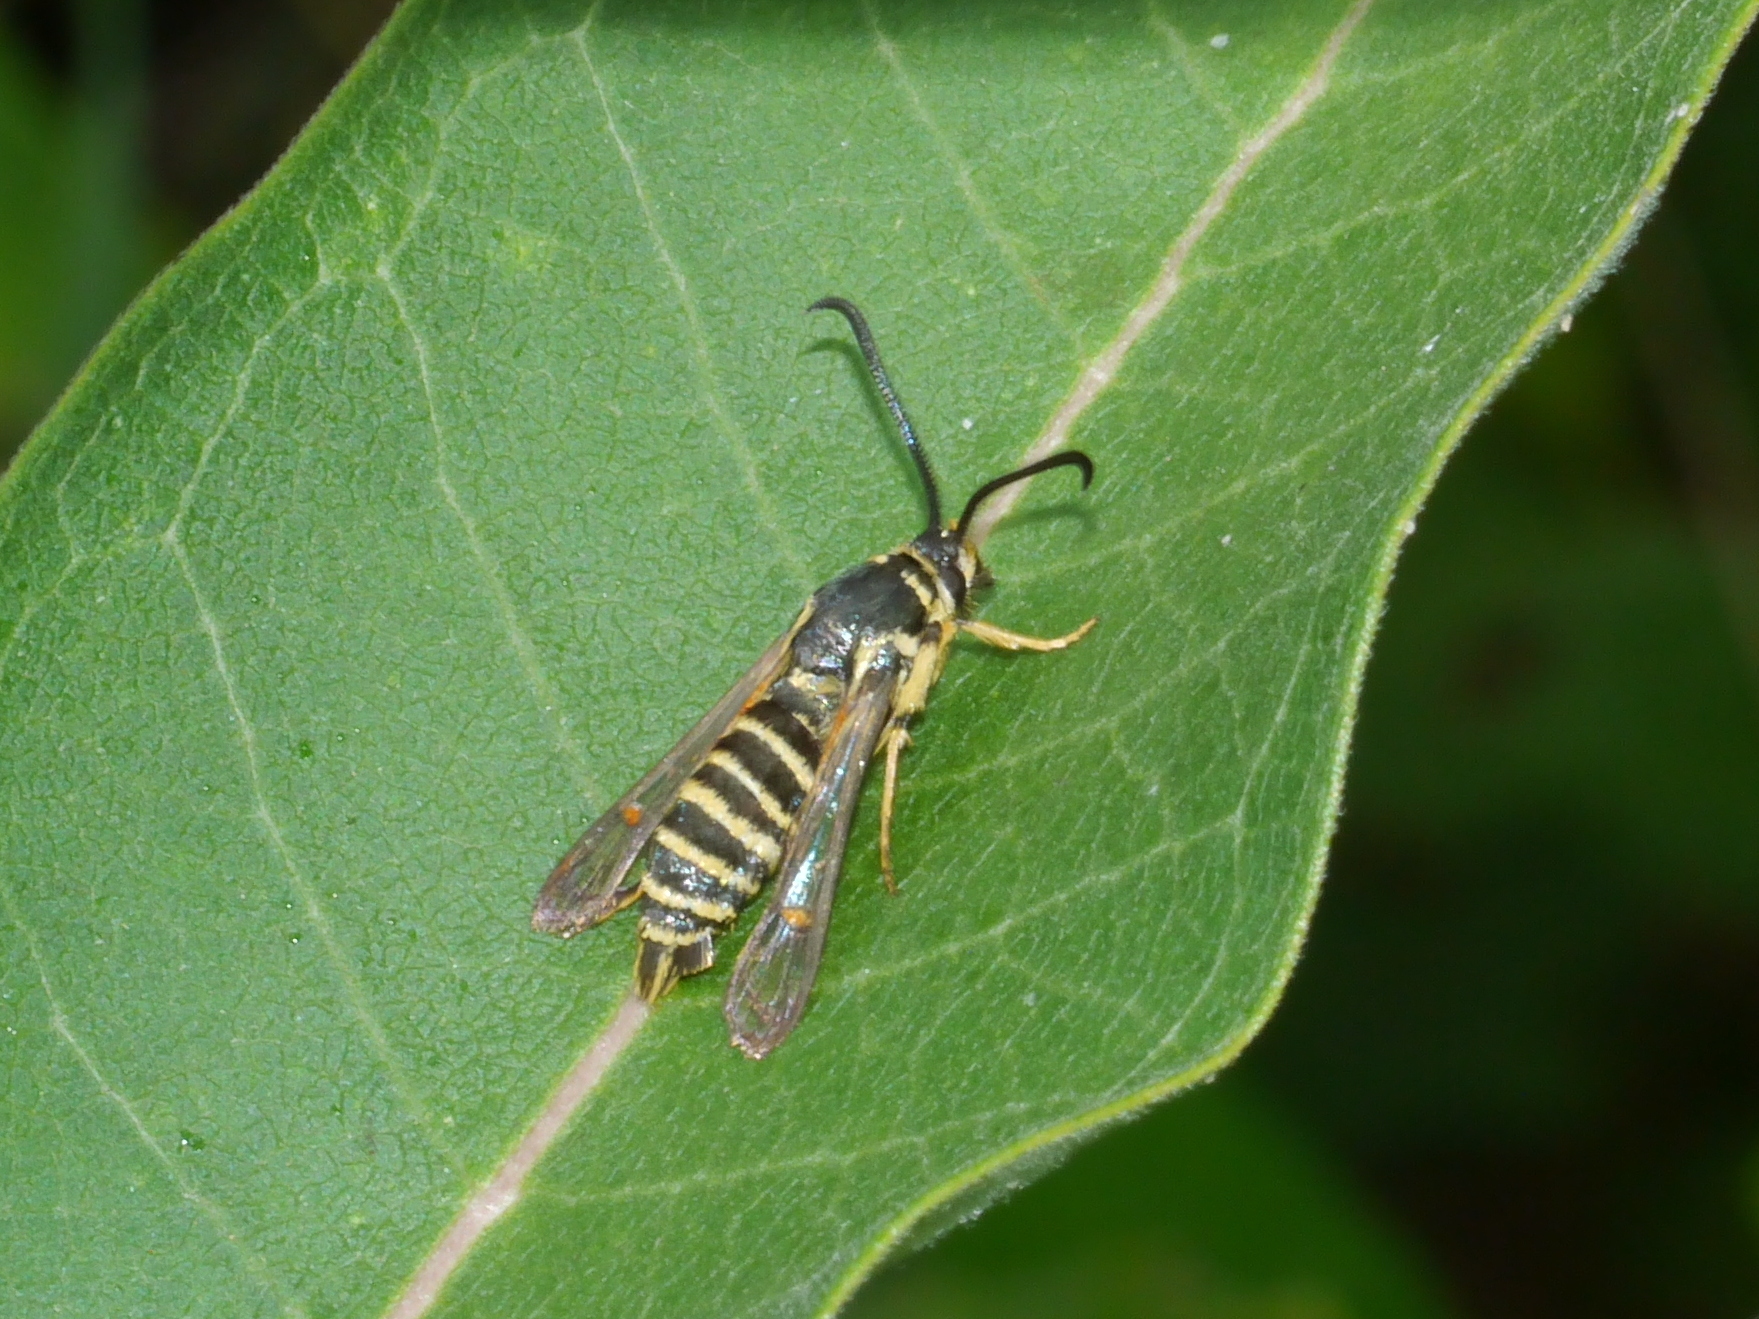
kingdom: Animalia
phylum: Arthropoda
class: Insecta
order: Lepidoptera
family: Sesiidae
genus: Synanthedon
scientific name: Synanthedon rileyana
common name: Riley's clearwing moth
